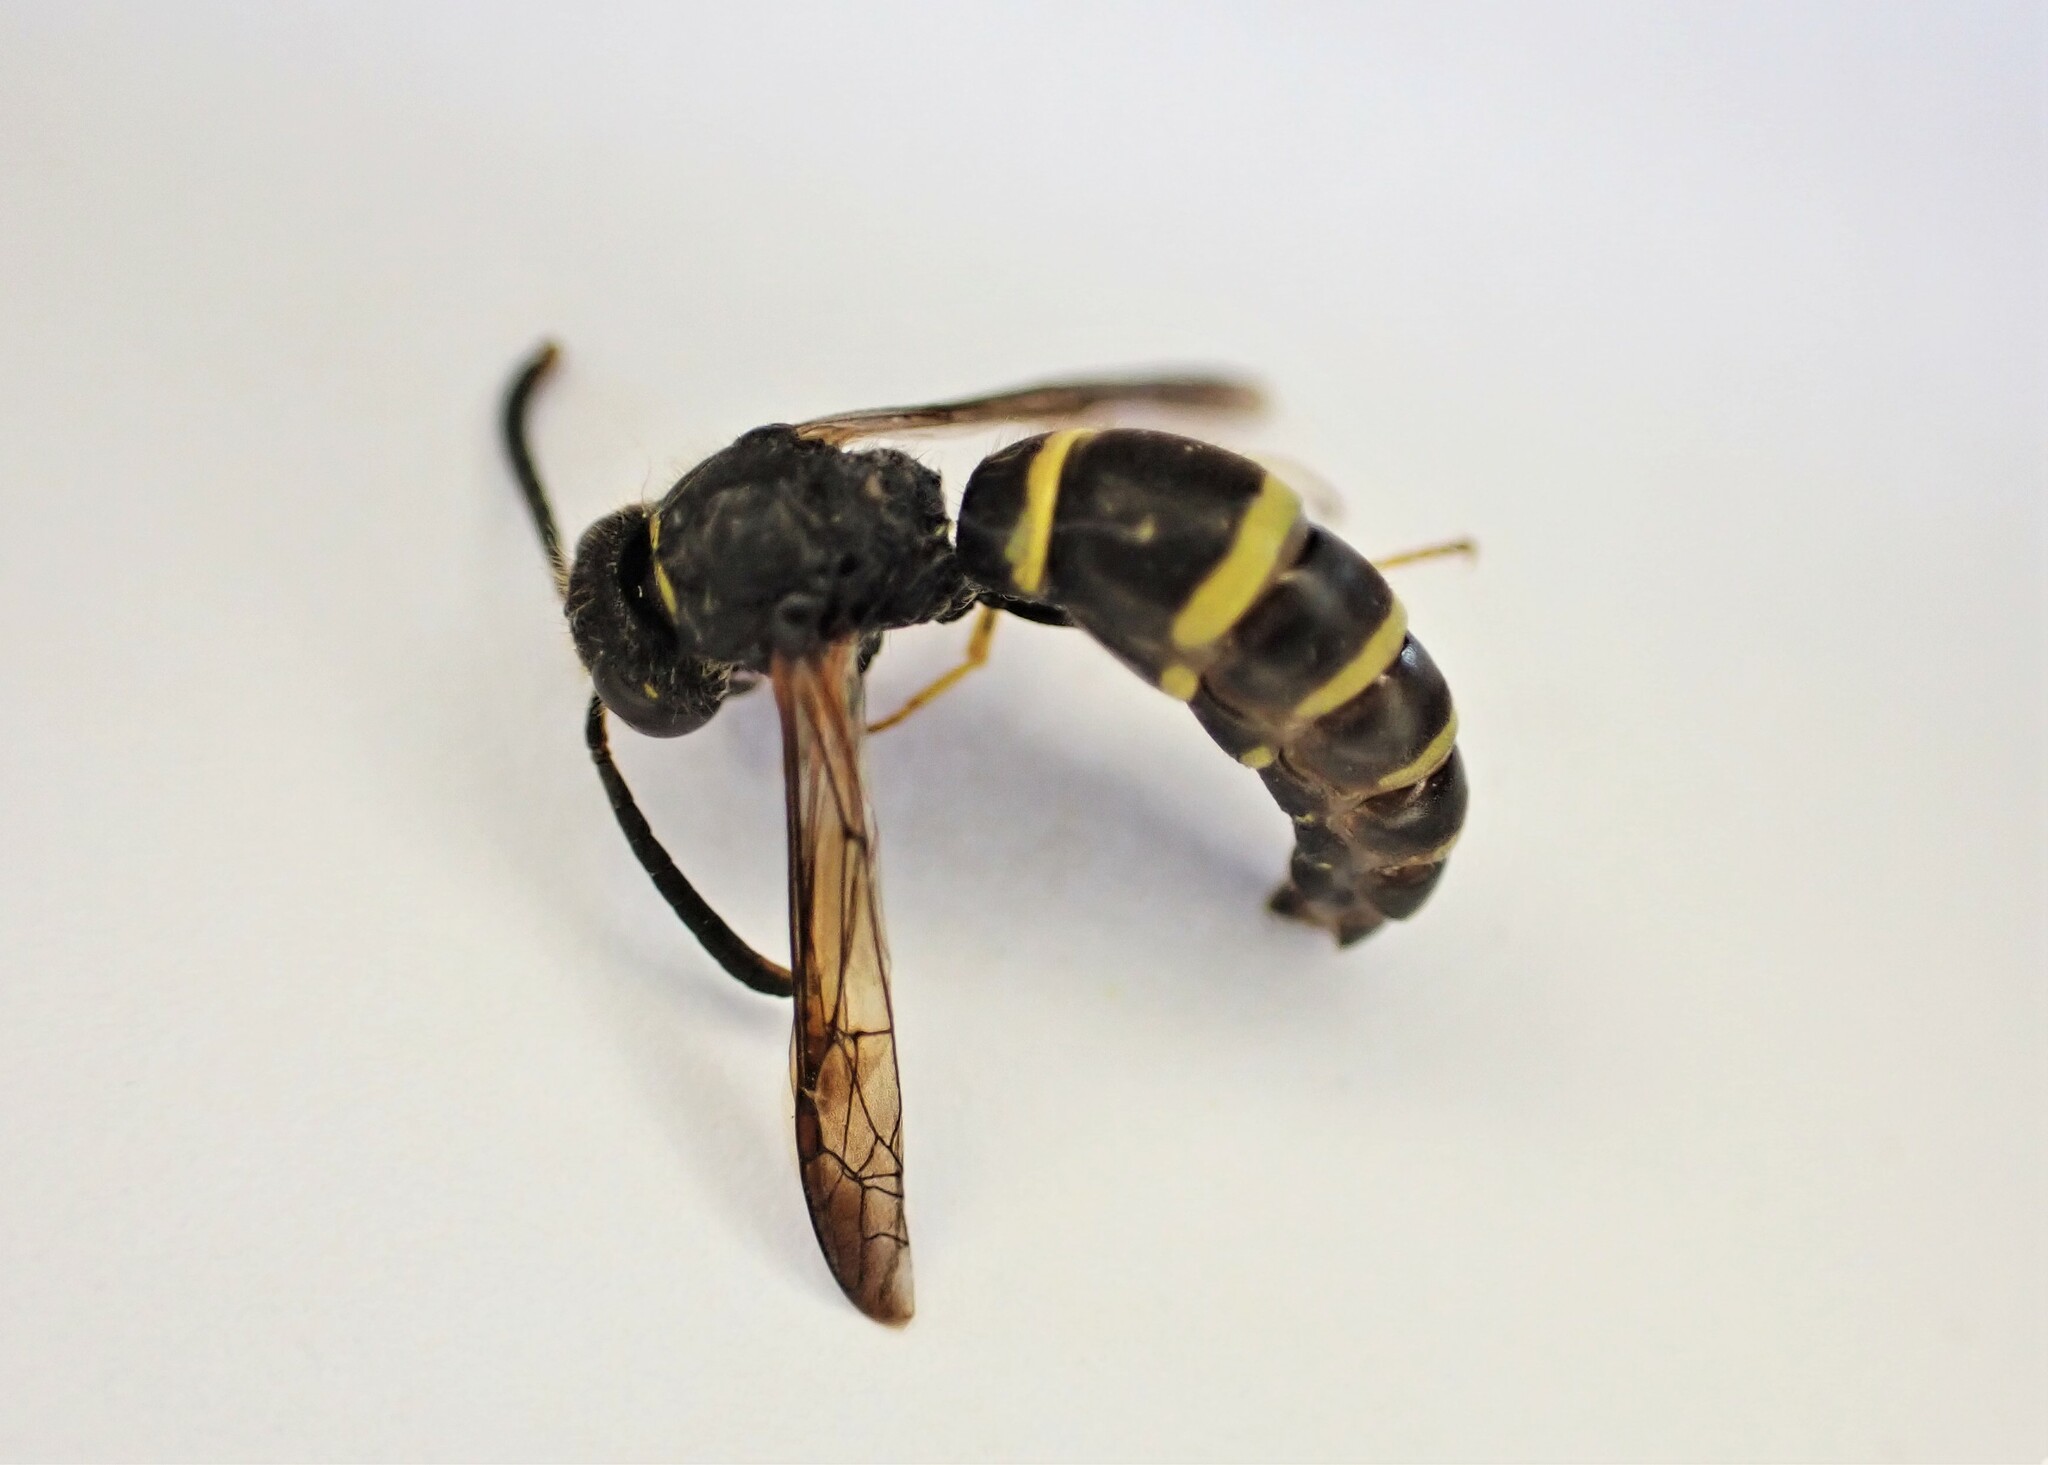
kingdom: Animalia
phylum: Arthropoda
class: Insecta
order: Hymenoptera
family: Vespidae
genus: Ancistrocerus
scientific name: Ancistrocerus gazella
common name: European tube wasp
